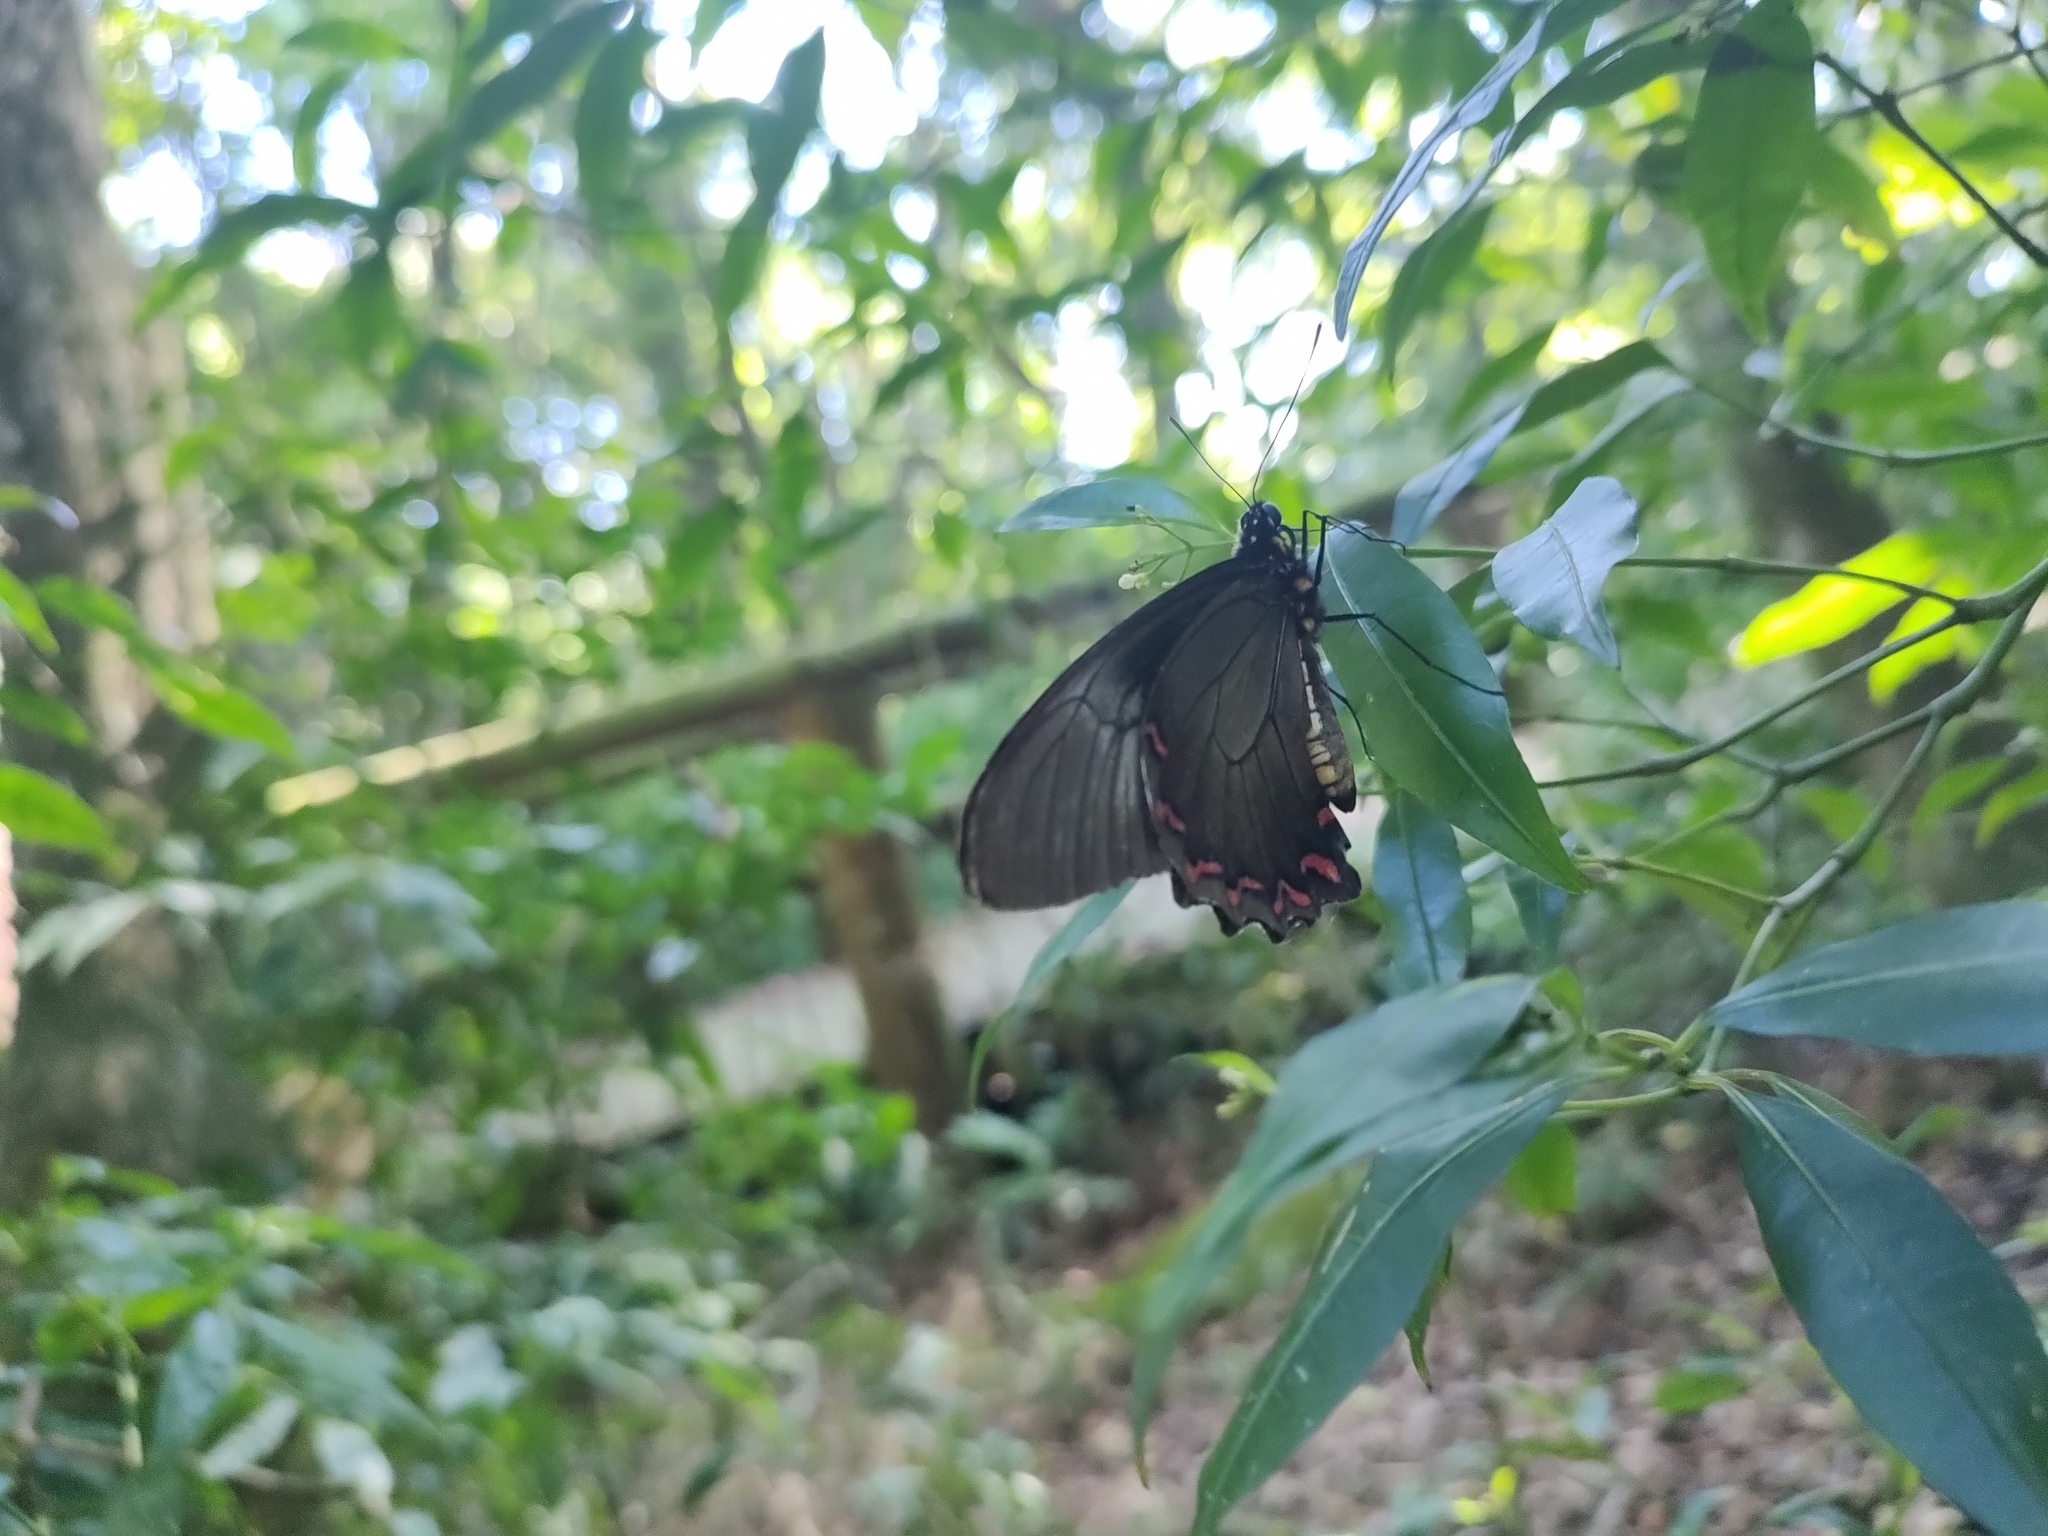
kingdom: Animalia
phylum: Arthropoda
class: Insecta
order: Lepidoptera
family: Papilionidae
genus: Battus
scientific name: Battus polystictus
